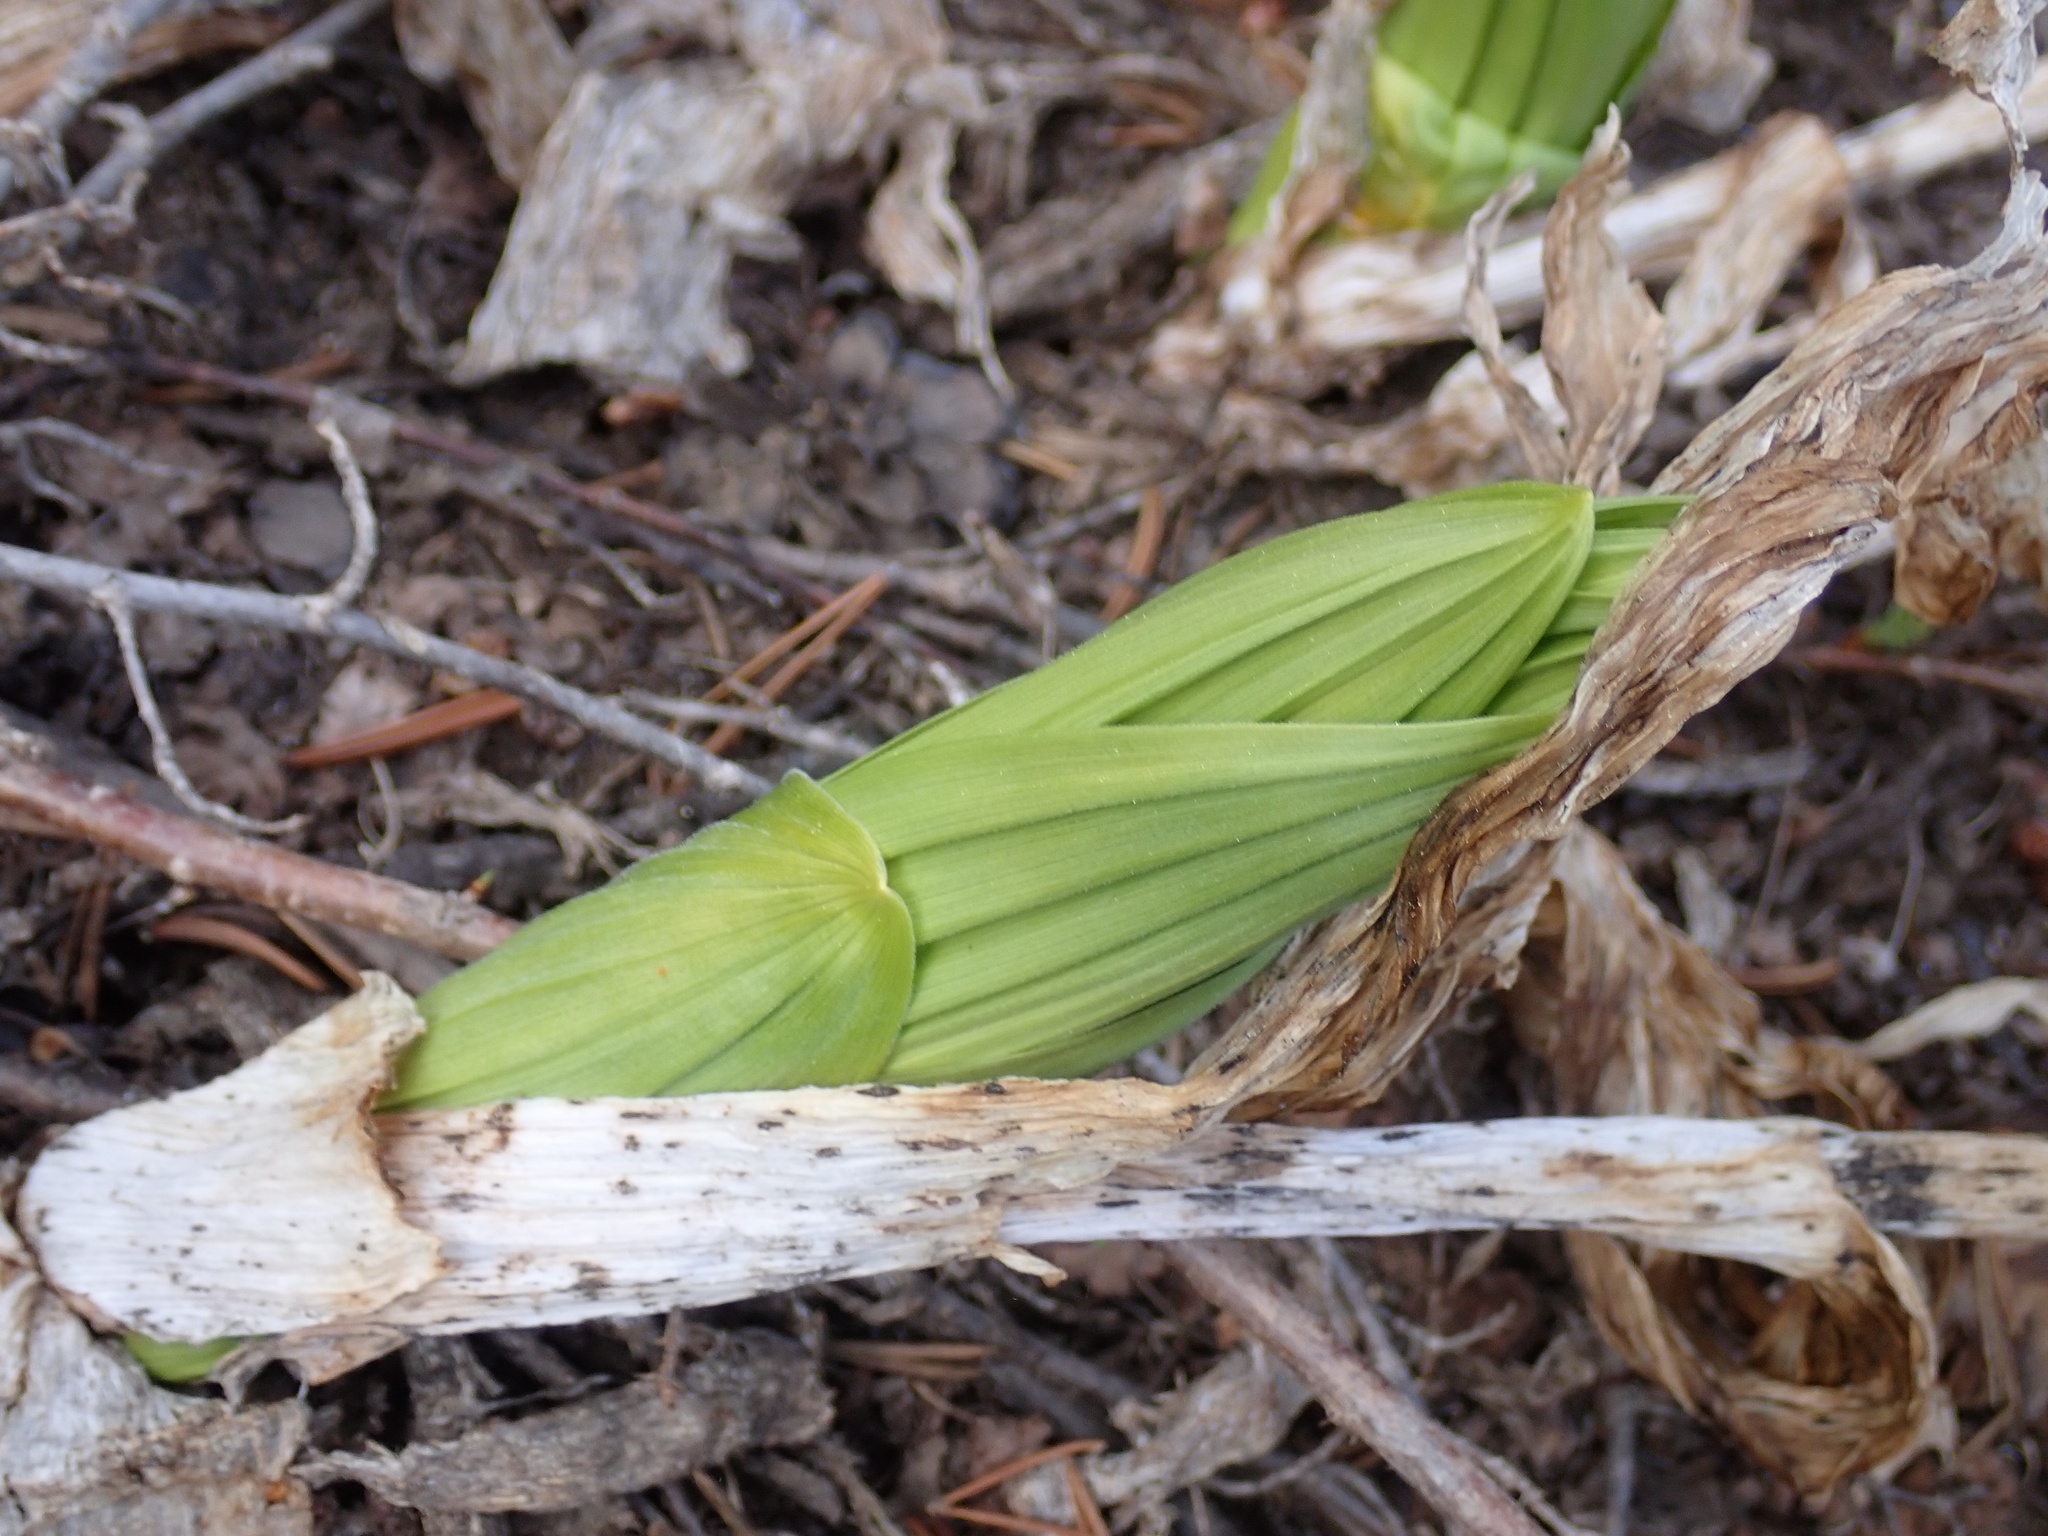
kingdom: Plantae
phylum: Tracheophyta
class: Liliopsida
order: Liliales
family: Melanthiaceae
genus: Veratrum
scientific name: Veratrum californicum
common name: California veratrum
